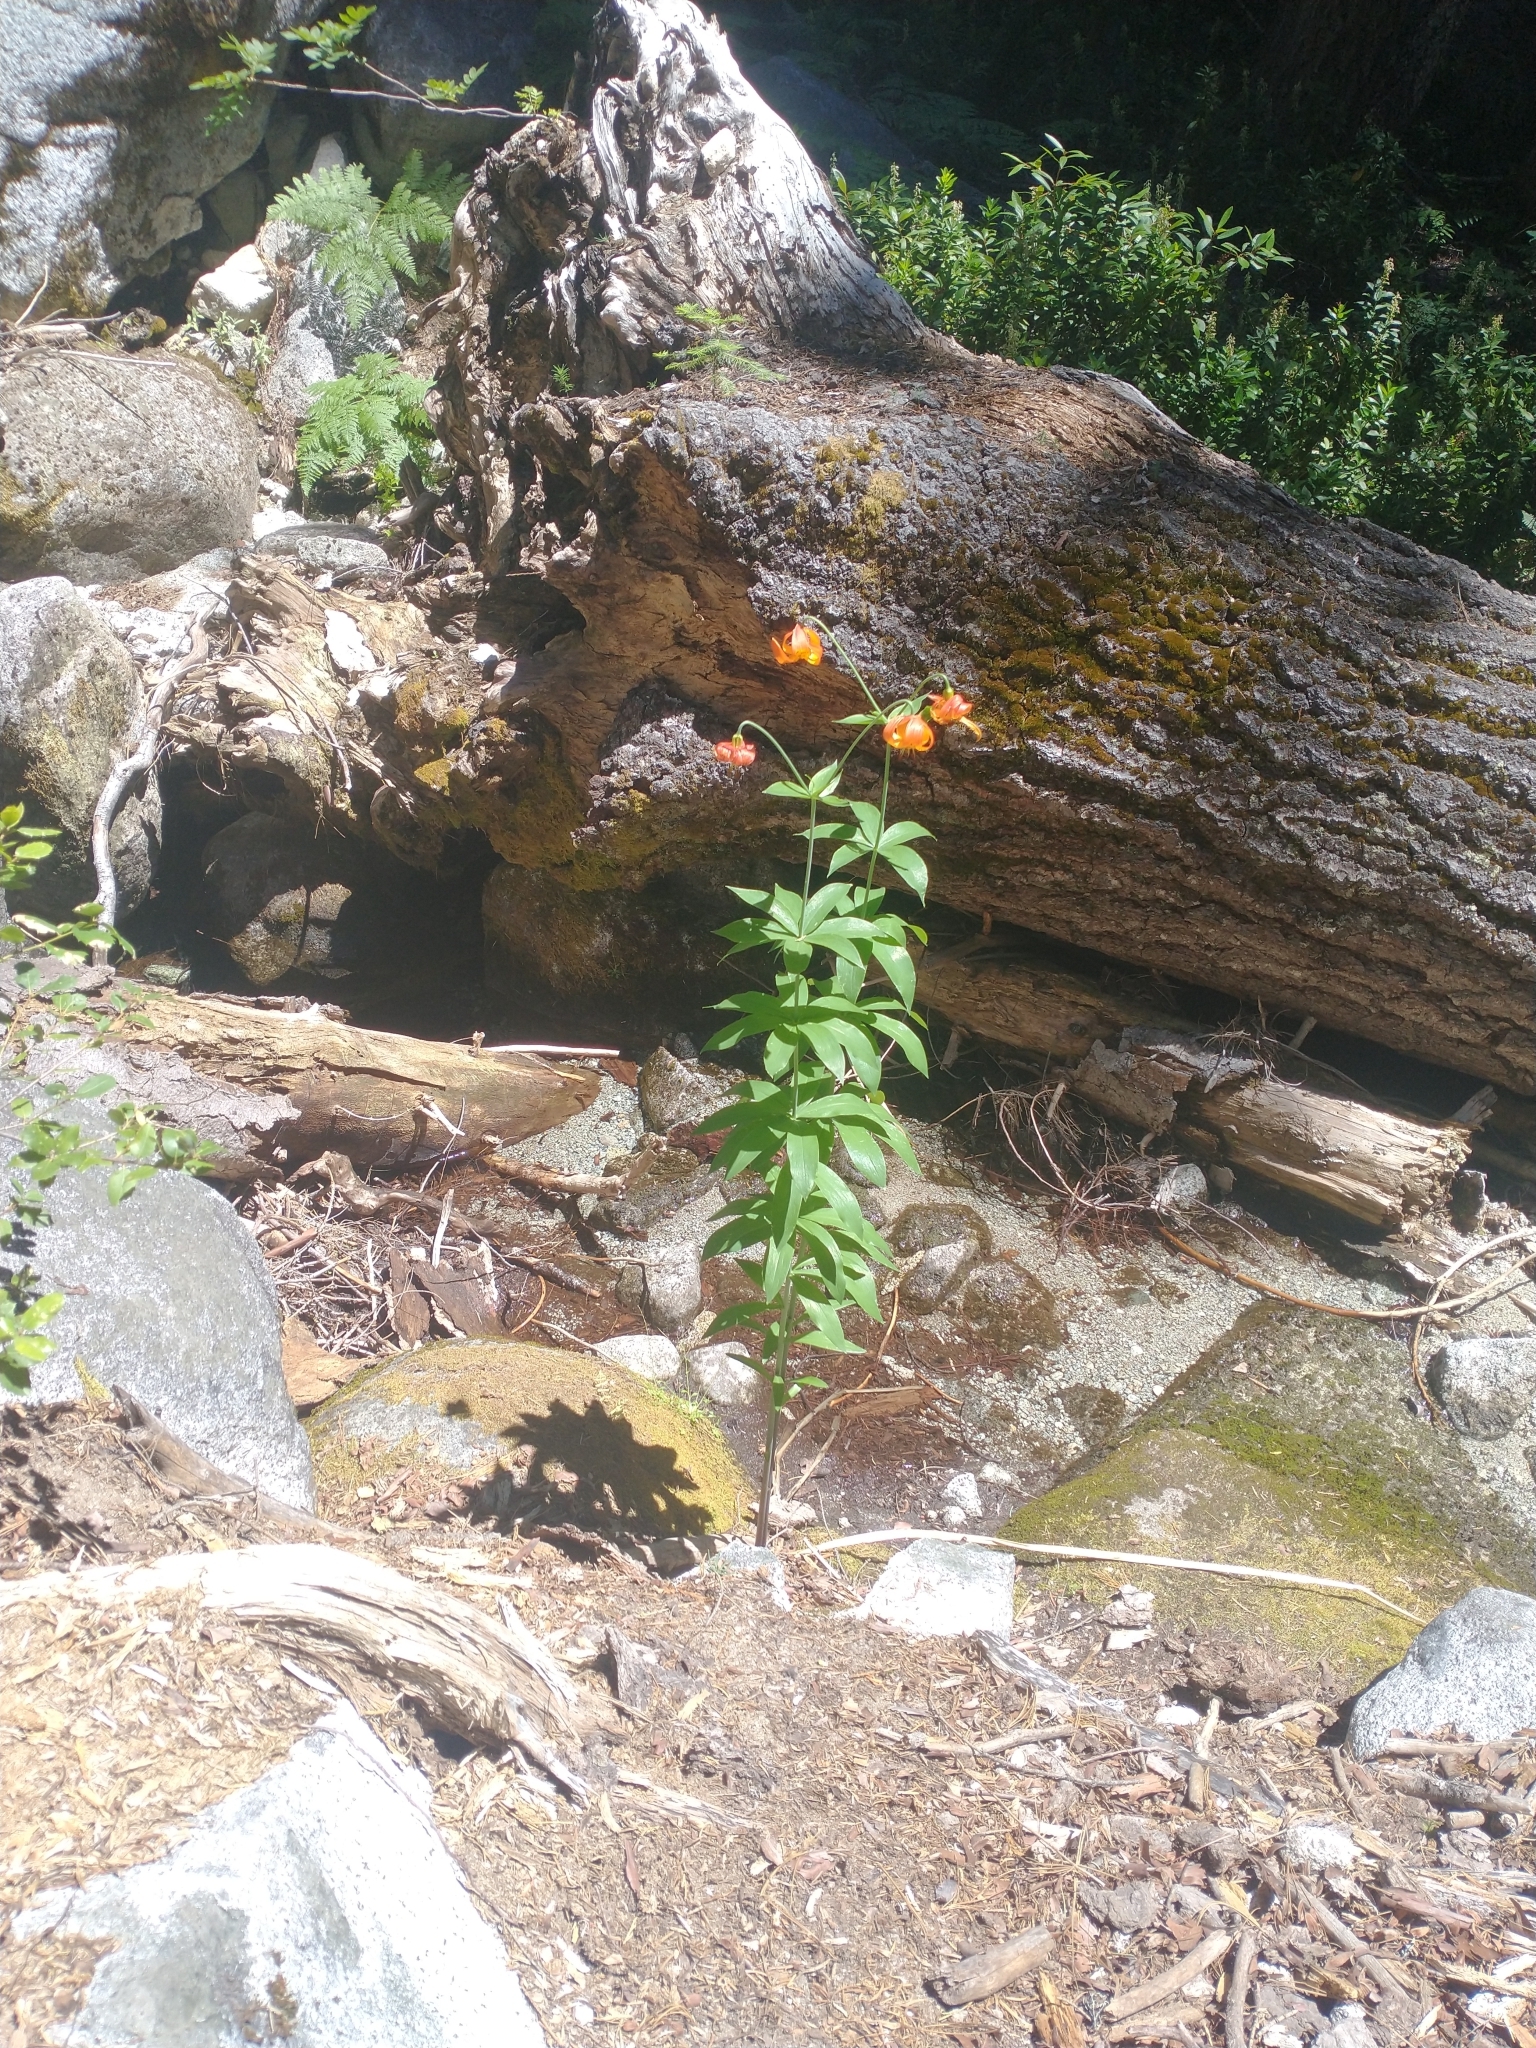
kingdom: Plantae
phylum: Tracheophyta
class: Liliopsida
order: Liliales
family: Liliaceae
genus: Lilium
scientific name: Lilium pardalinum
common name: Panther lily
